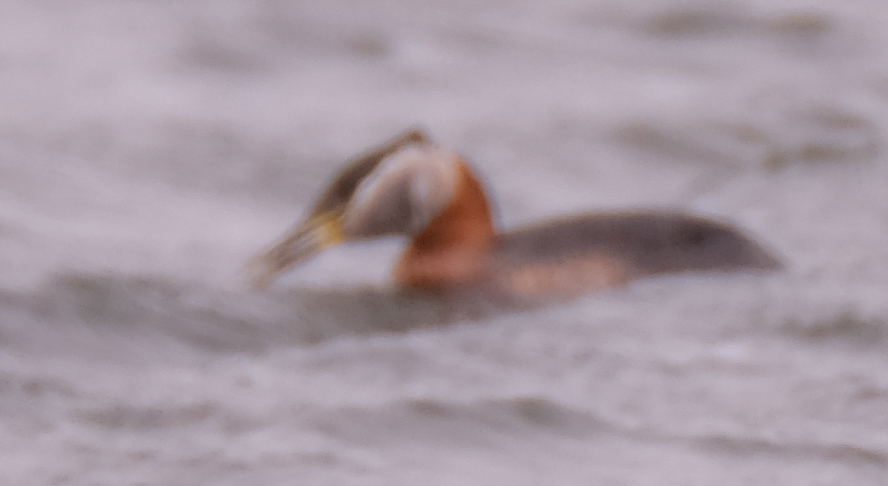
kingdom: Animalia
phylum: Chordata
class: Aves
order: Podicipediformes
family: Podicipedidae
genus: Podiceps
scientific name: Podiceps grisegena
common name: Red-necked grebe
